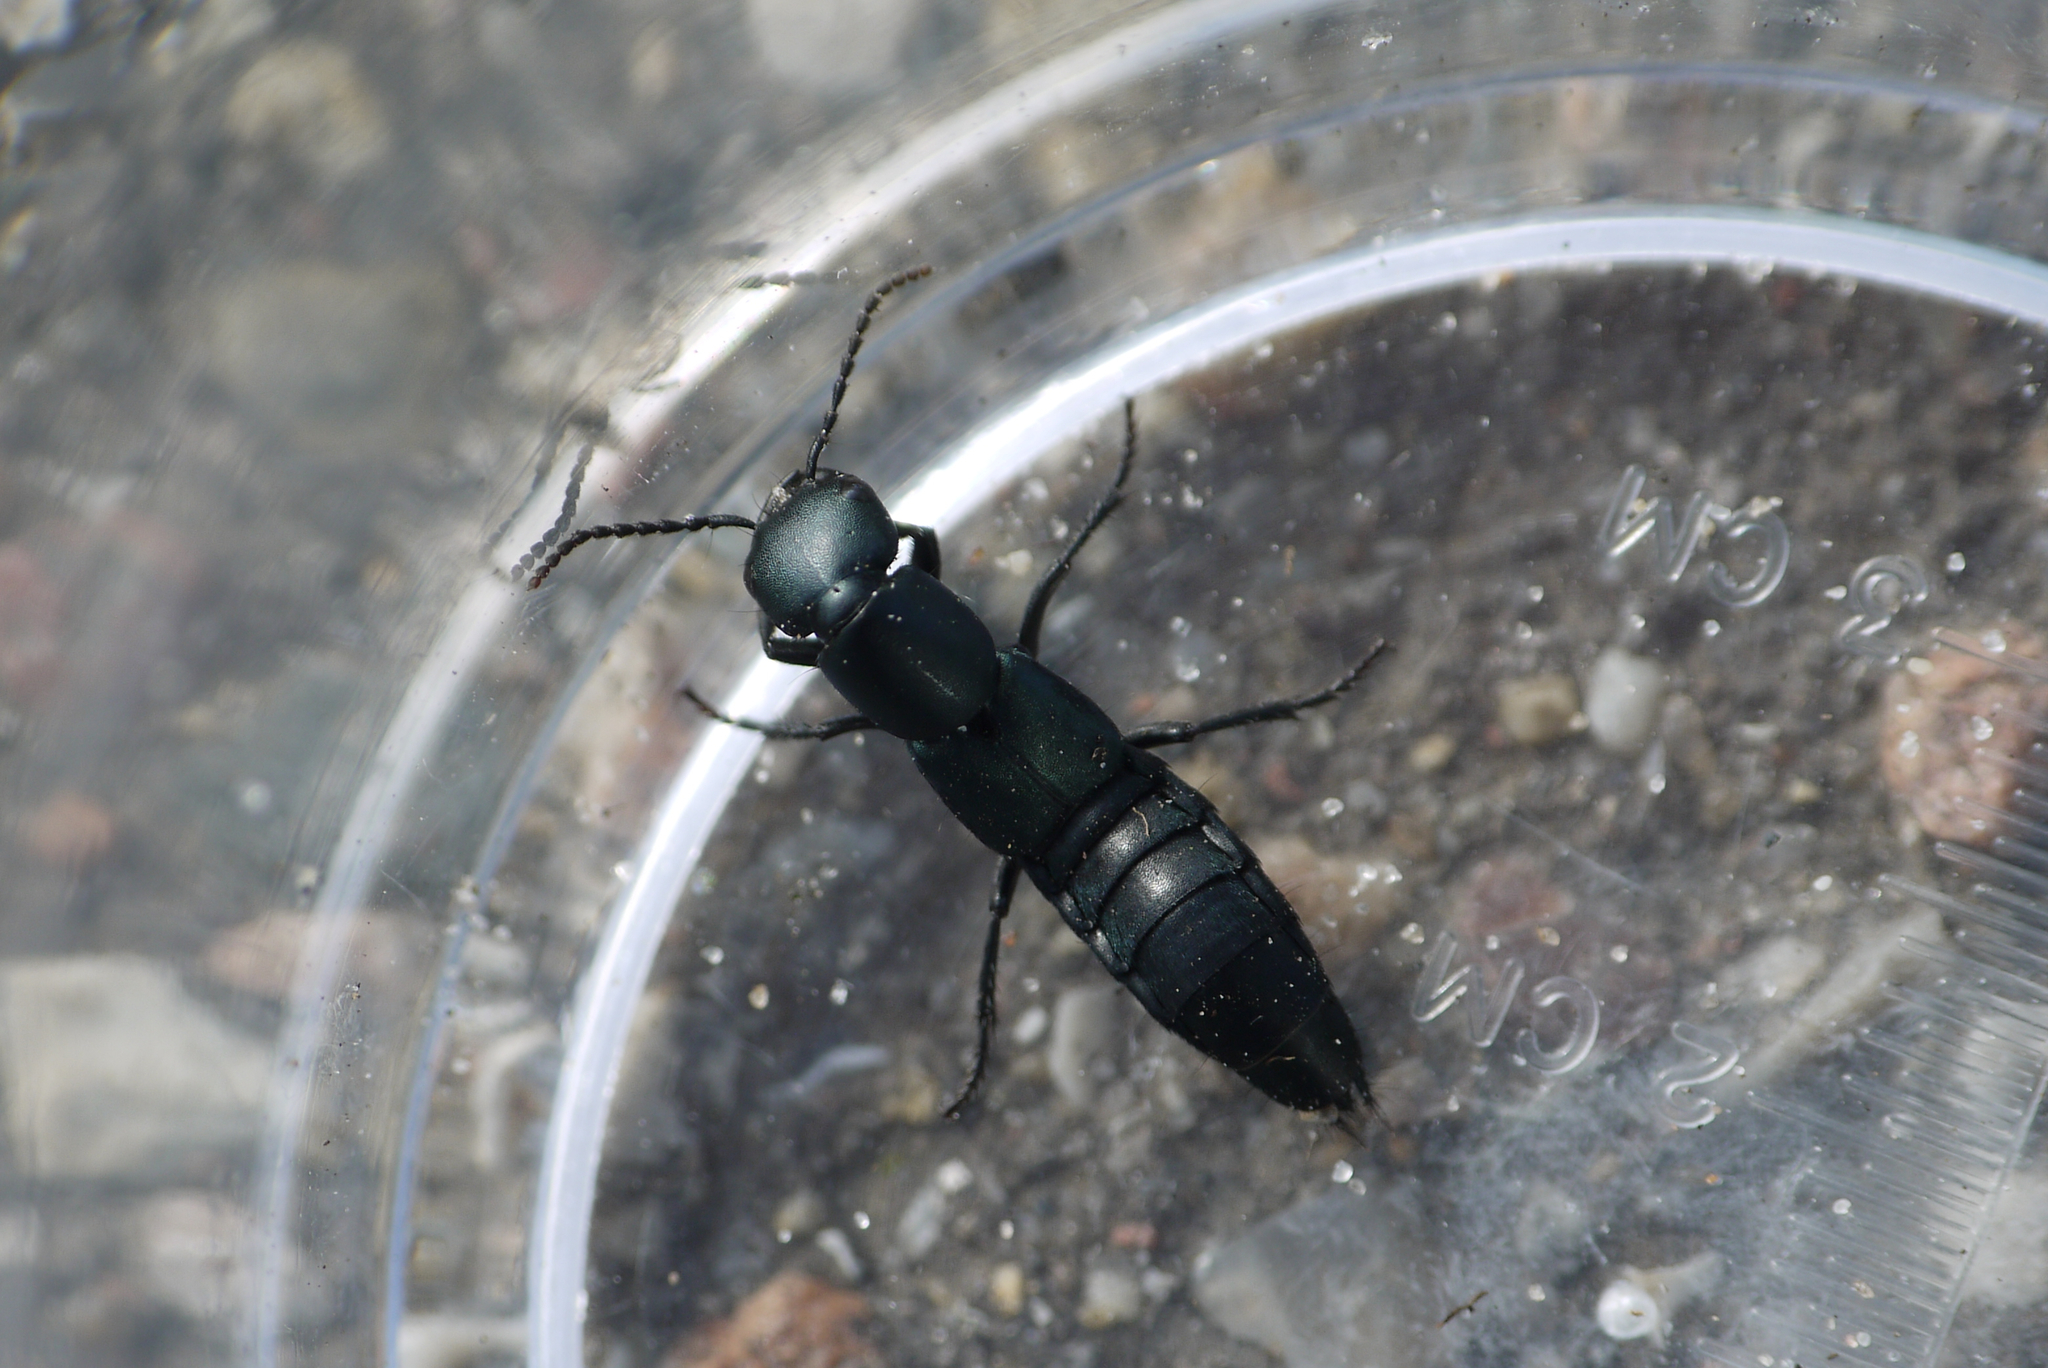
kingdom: Animalia
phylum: Arthropoda
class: Insecta
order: Coleoptera
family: Staphylinidae
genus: Ocypus
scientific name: Ocypus ophthalmicus
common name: Blue rove-beetle
